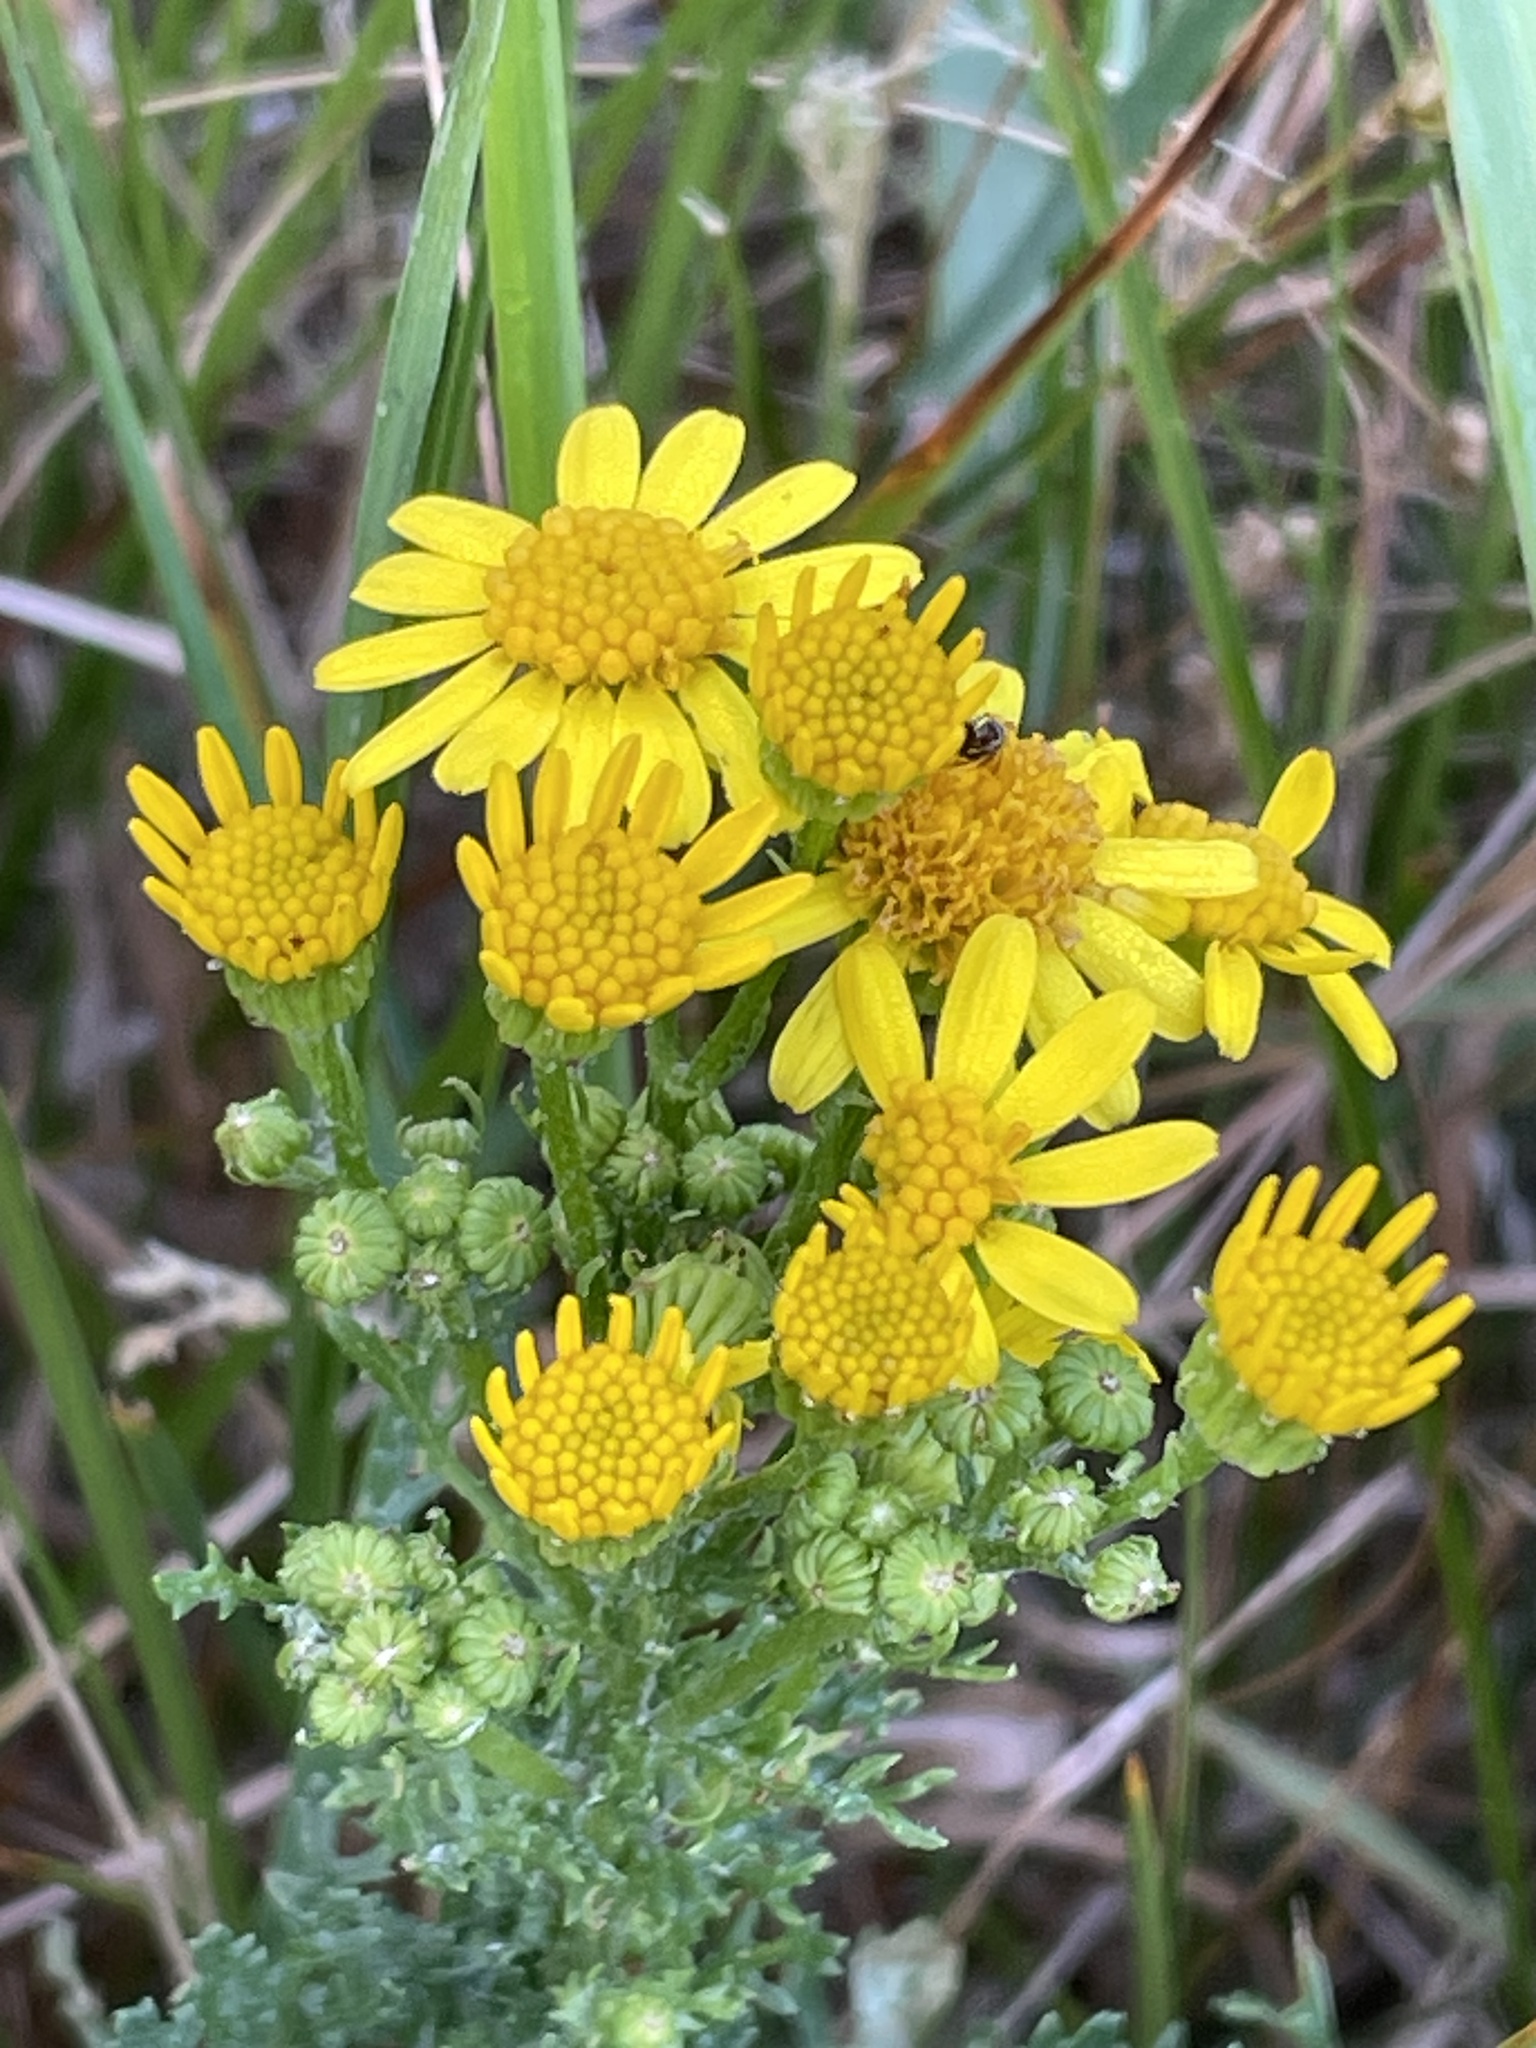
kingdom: Plantae
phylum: Tracheophyta
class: Magnoliopsida
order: Asterales
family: Asteraceae
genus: Jacobaea
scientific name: Jacobaea vulgaris
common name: Stinking willie
